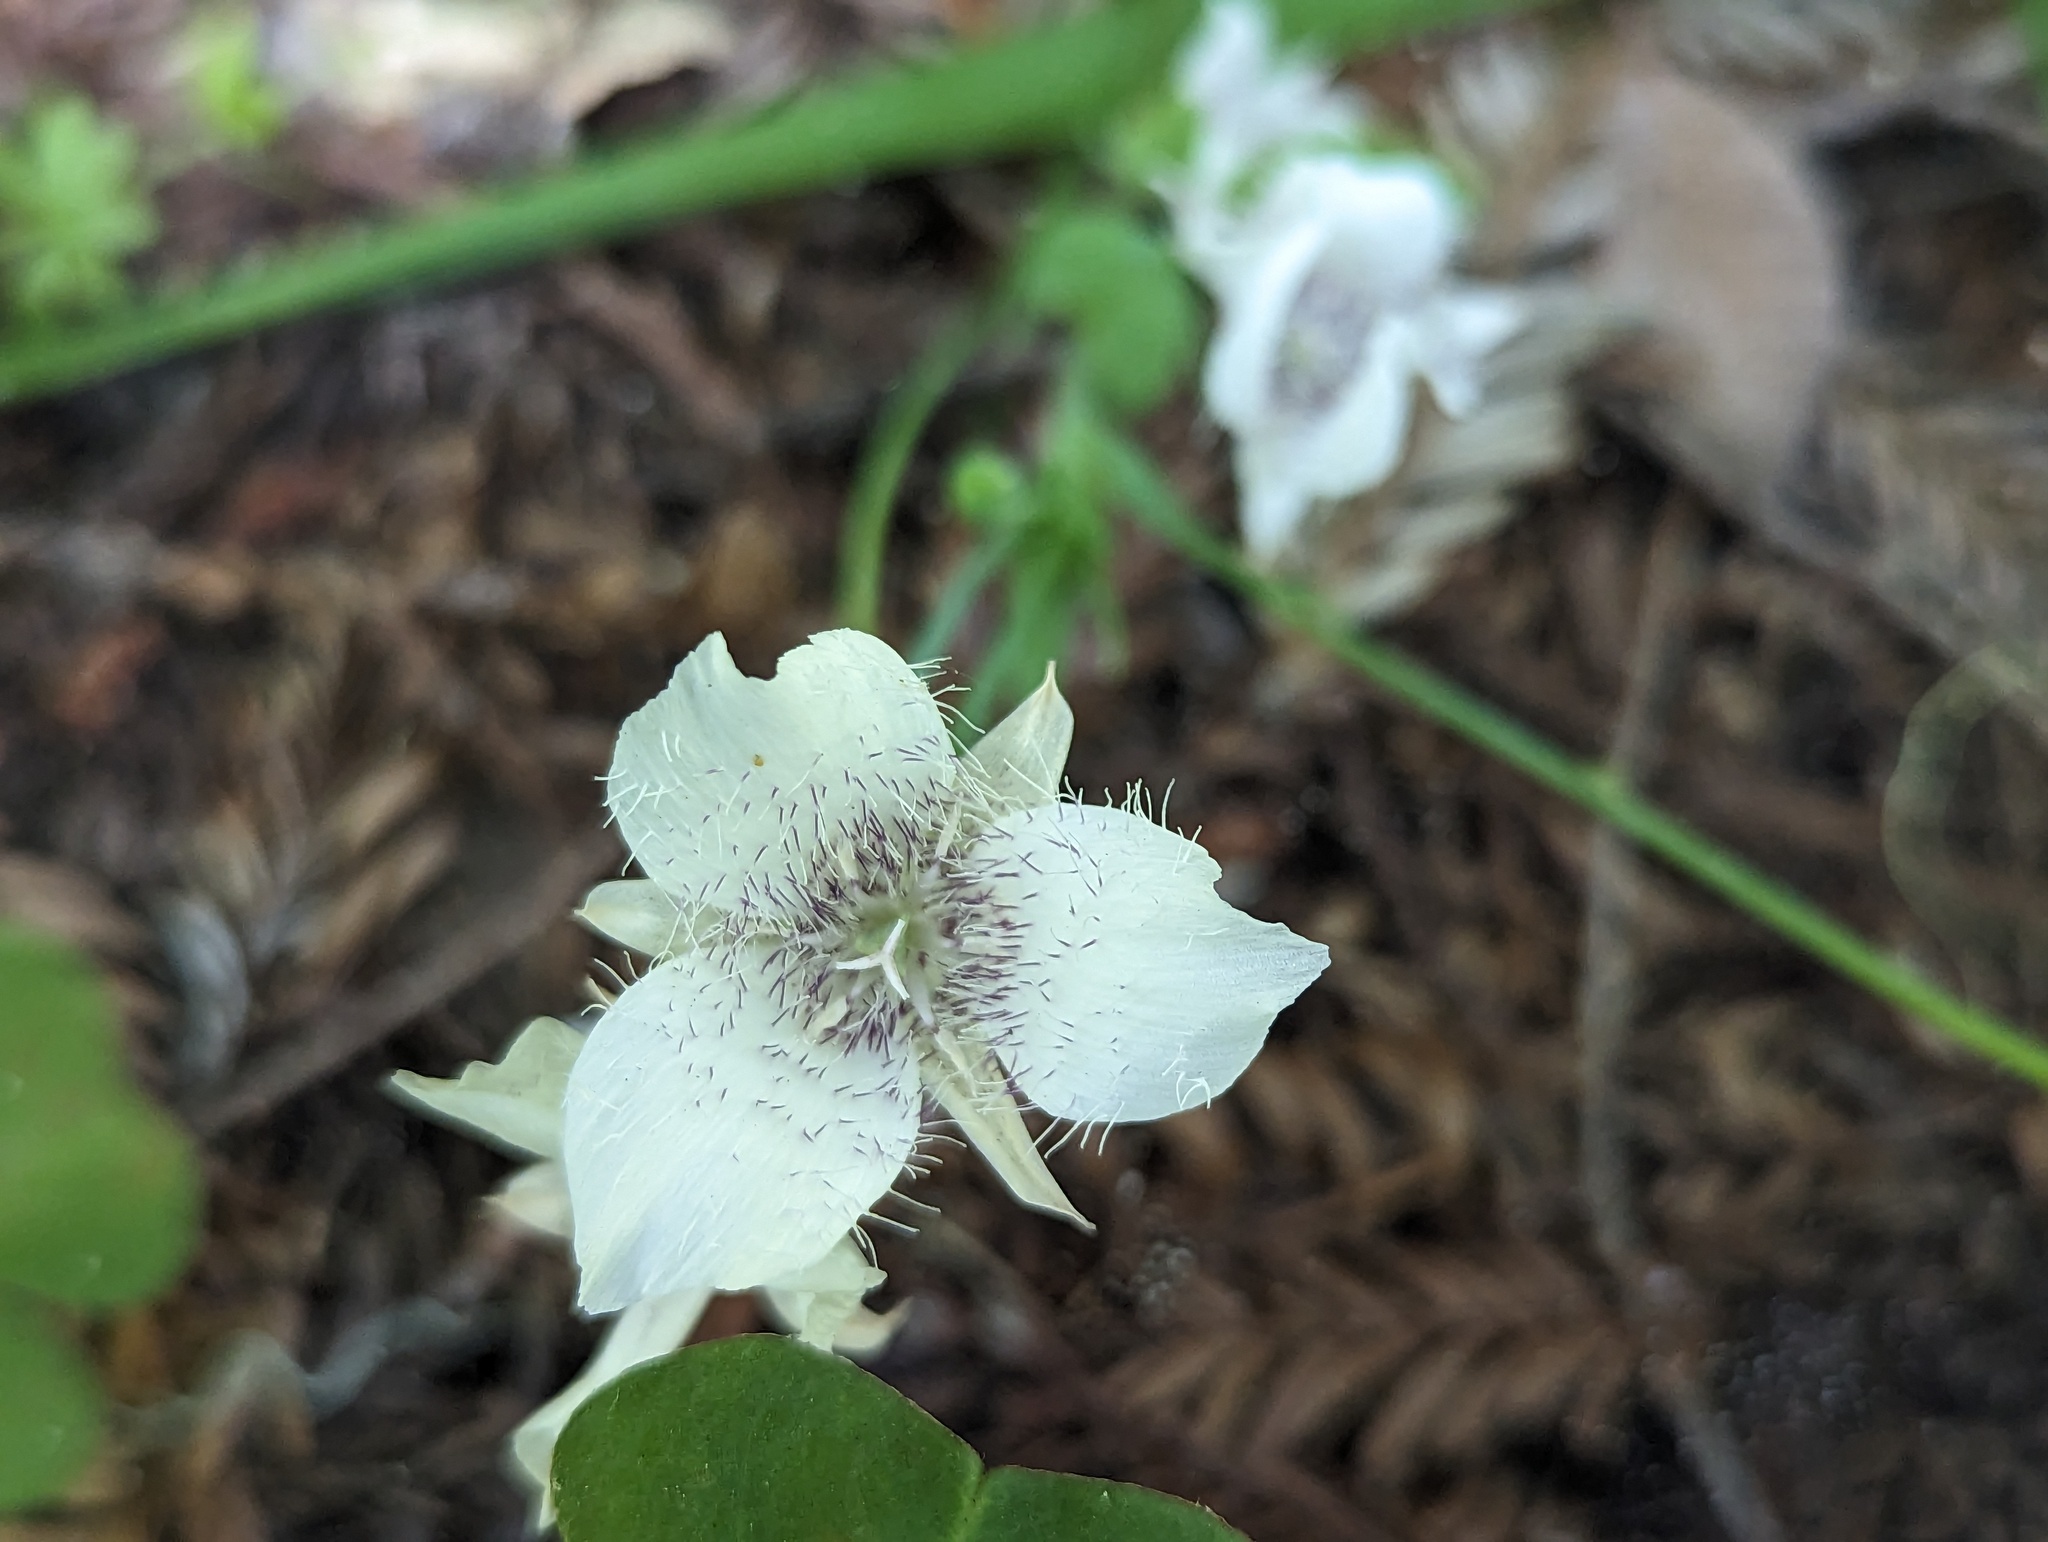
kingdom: Plantae
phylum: Tracheophyta
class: Liliopsida
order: Liliales
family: Liliaceae
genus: Calochortus
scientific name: Calochortus tolmiei
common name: Pussy-ears
